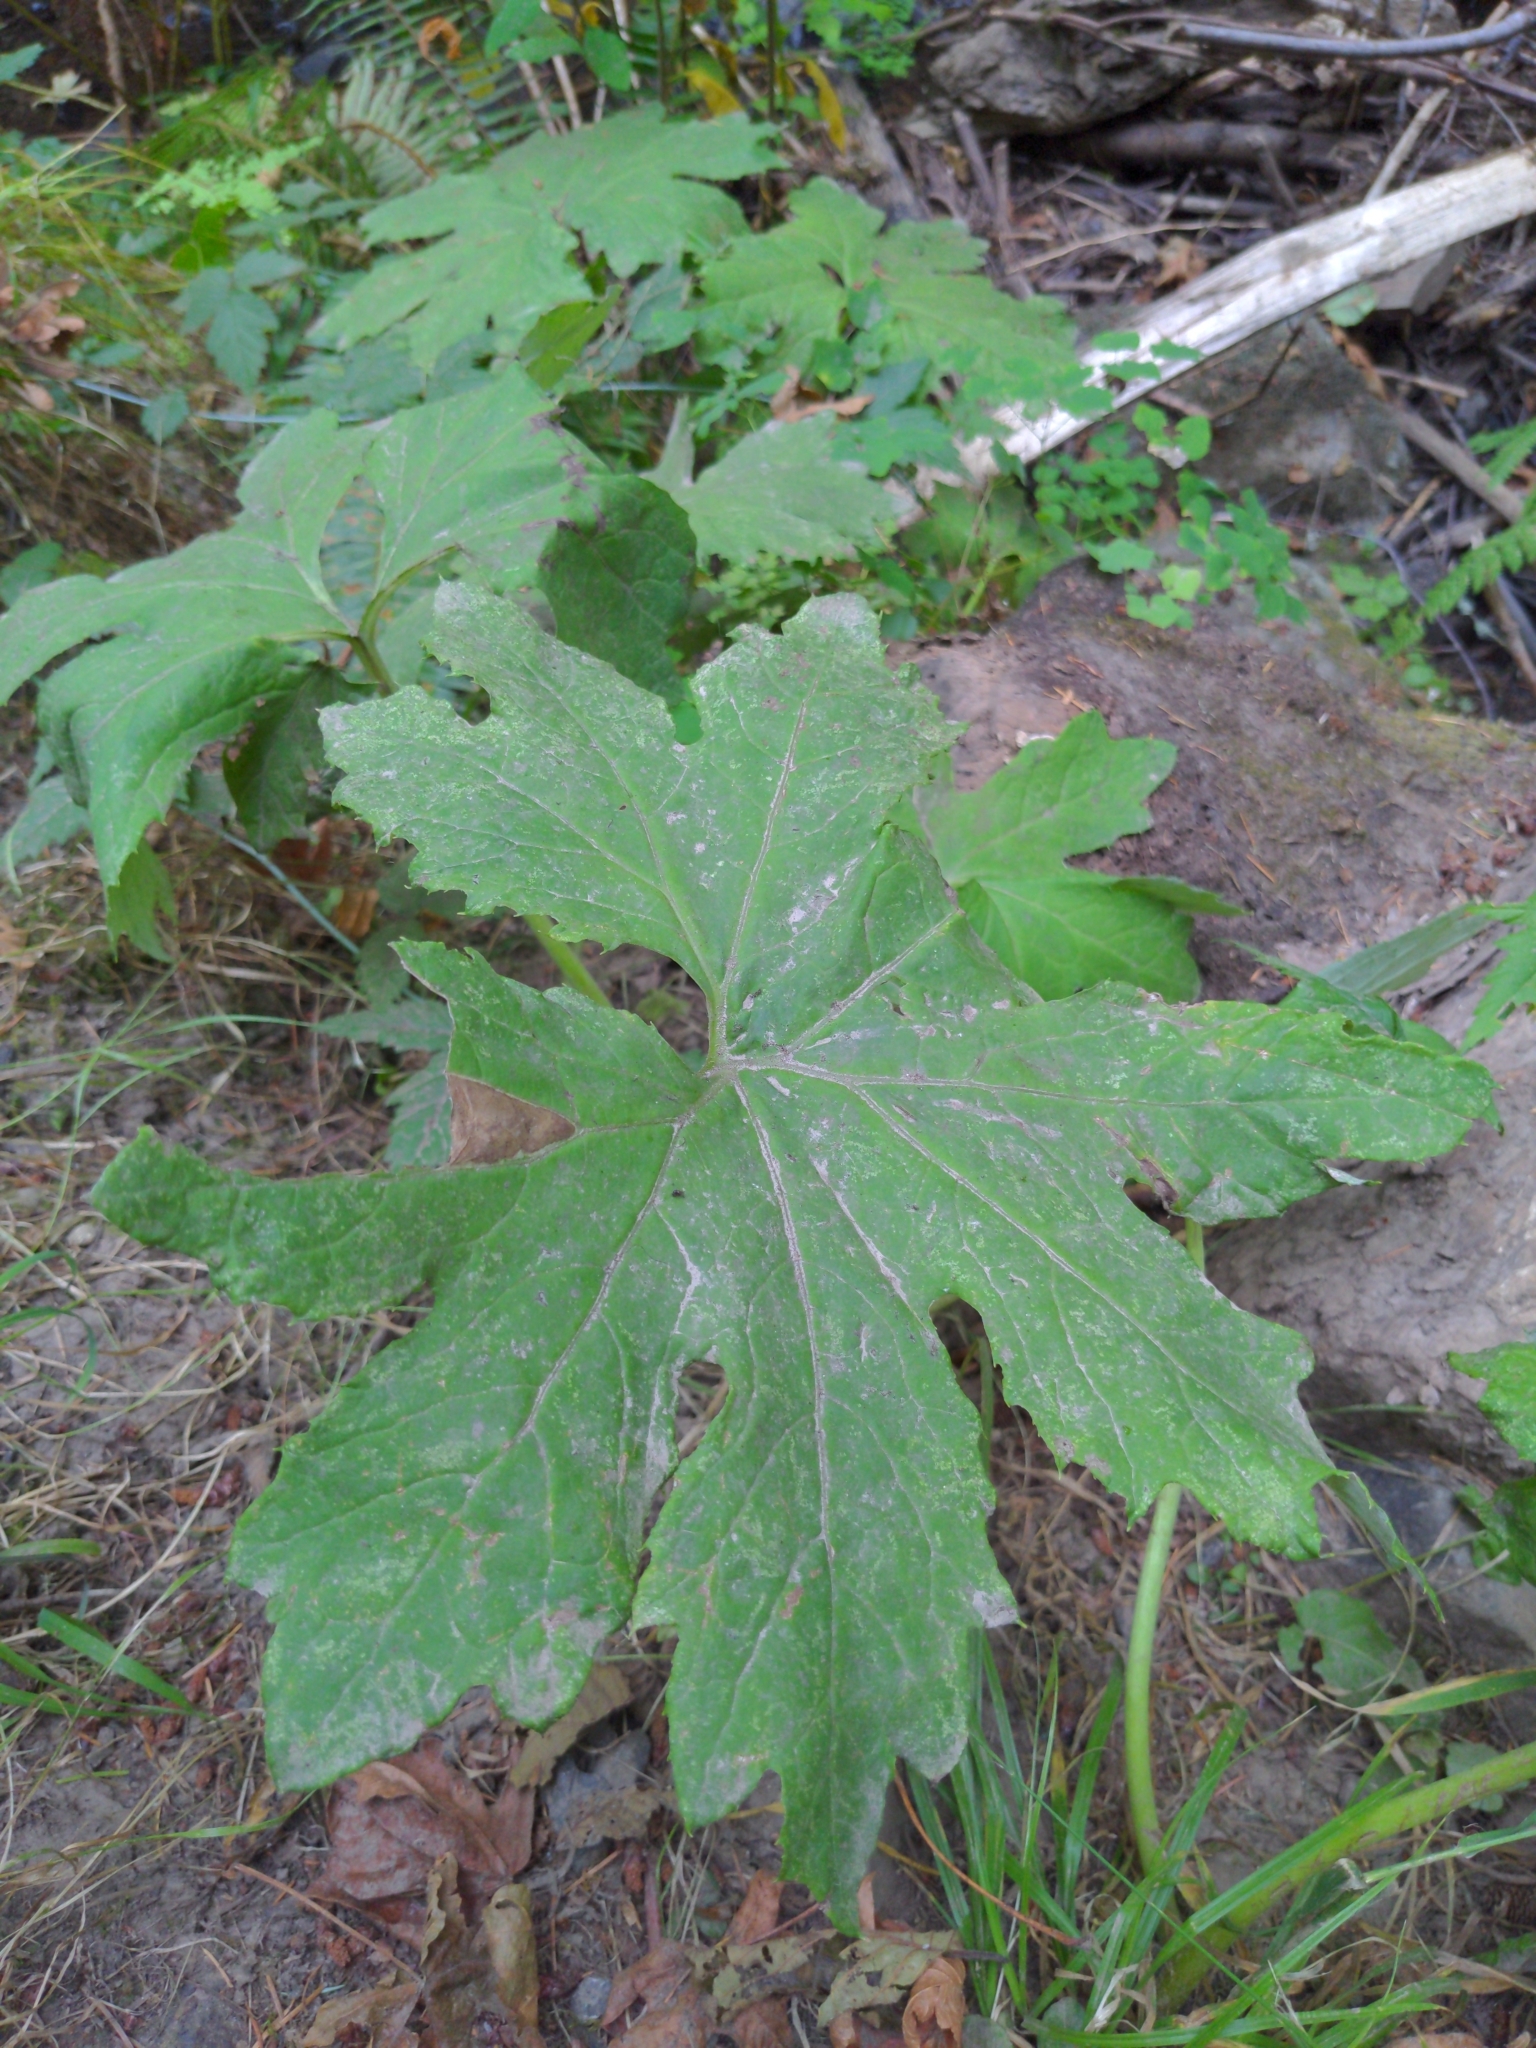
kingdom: Plantae
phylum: Tracheophyta
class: Magnoliopsida
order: Asterales
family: Asteraceae
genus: Petasites
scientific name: Petasites frigidus
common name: Arctic butterbur
